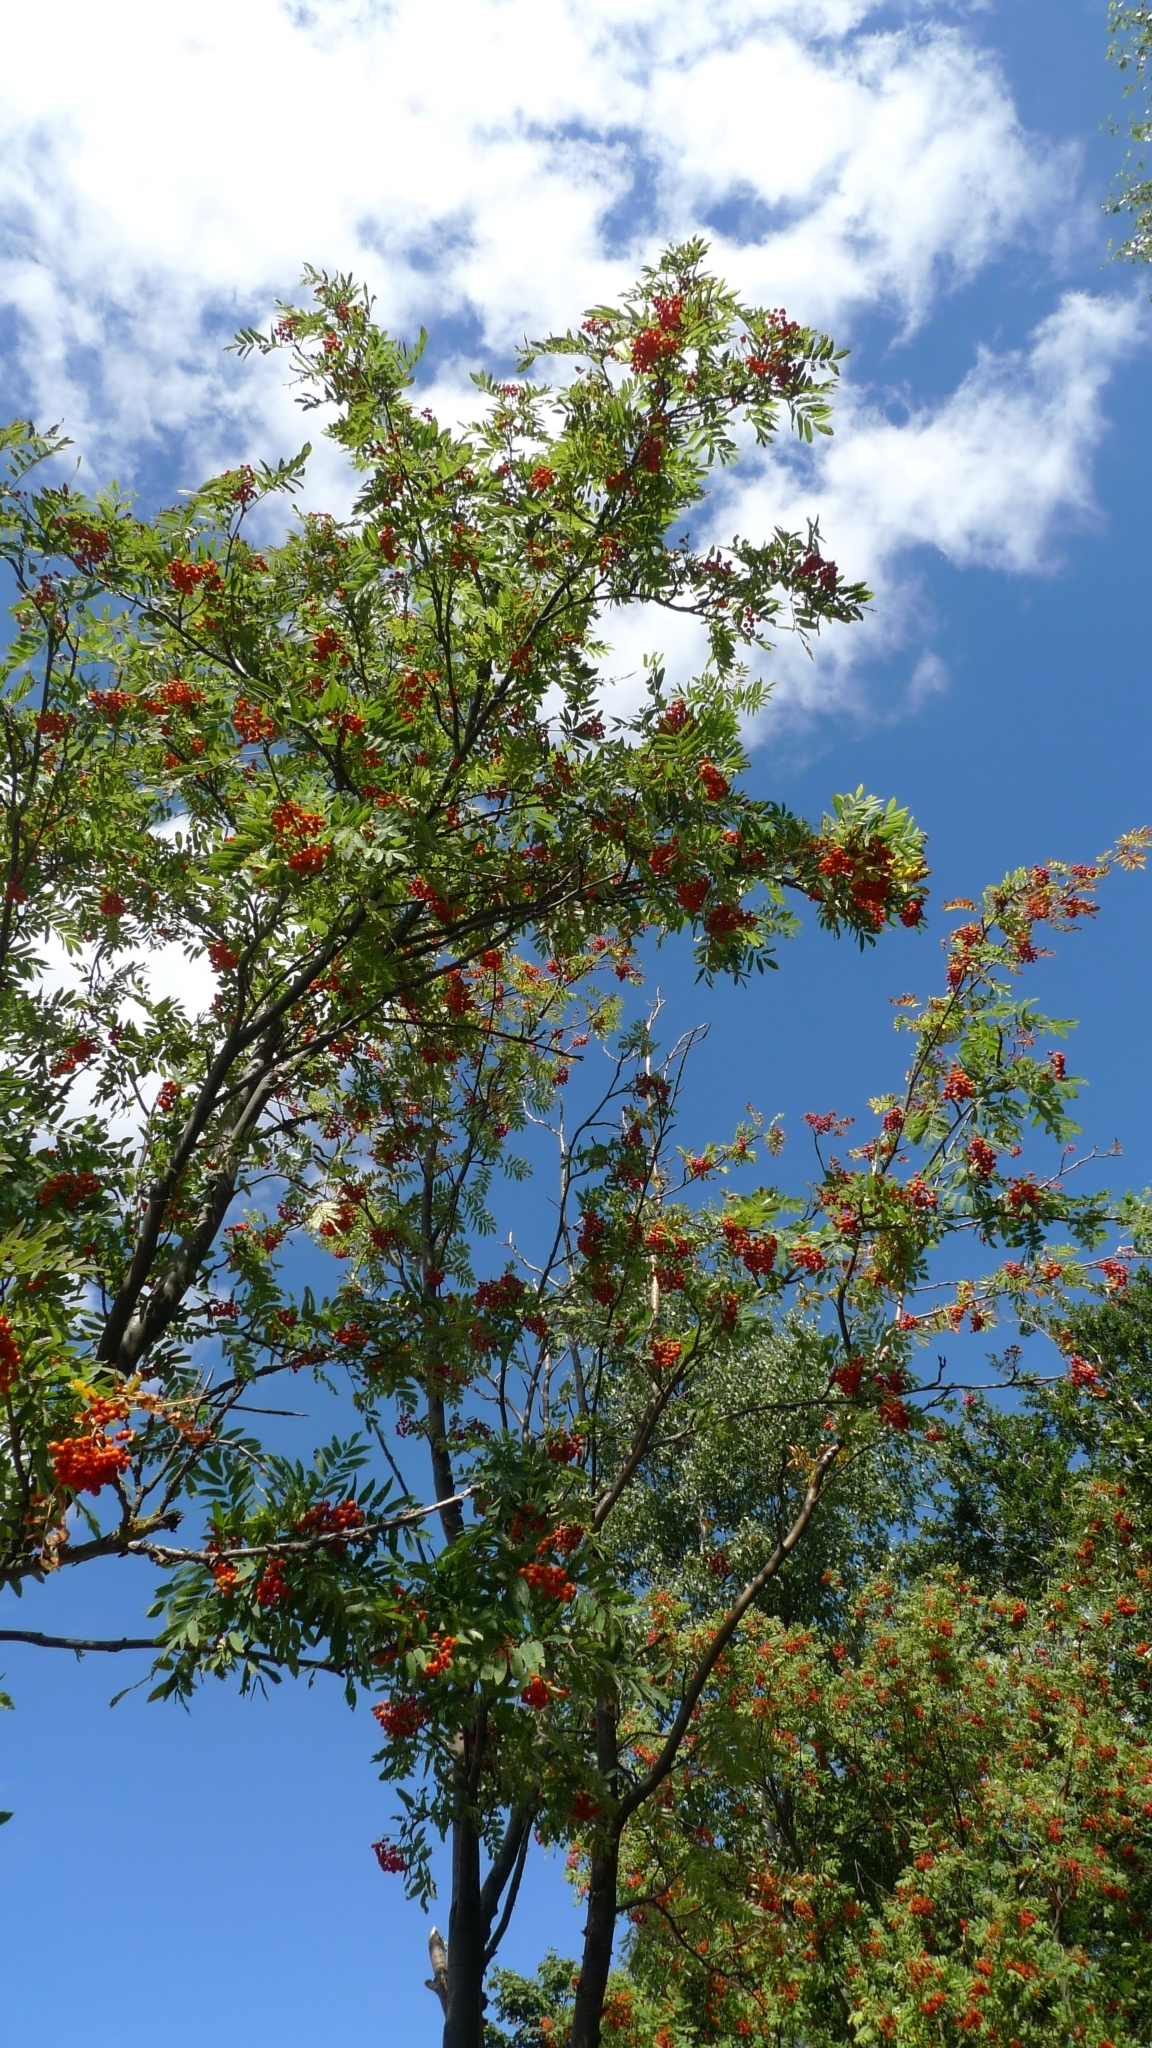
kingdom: Plantae
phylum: Tracheophyta
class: Magnoliopsida
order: Rosales
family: Rosaceae
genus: Sorbus
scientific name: Sorbus aucuparia
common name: Rowan
